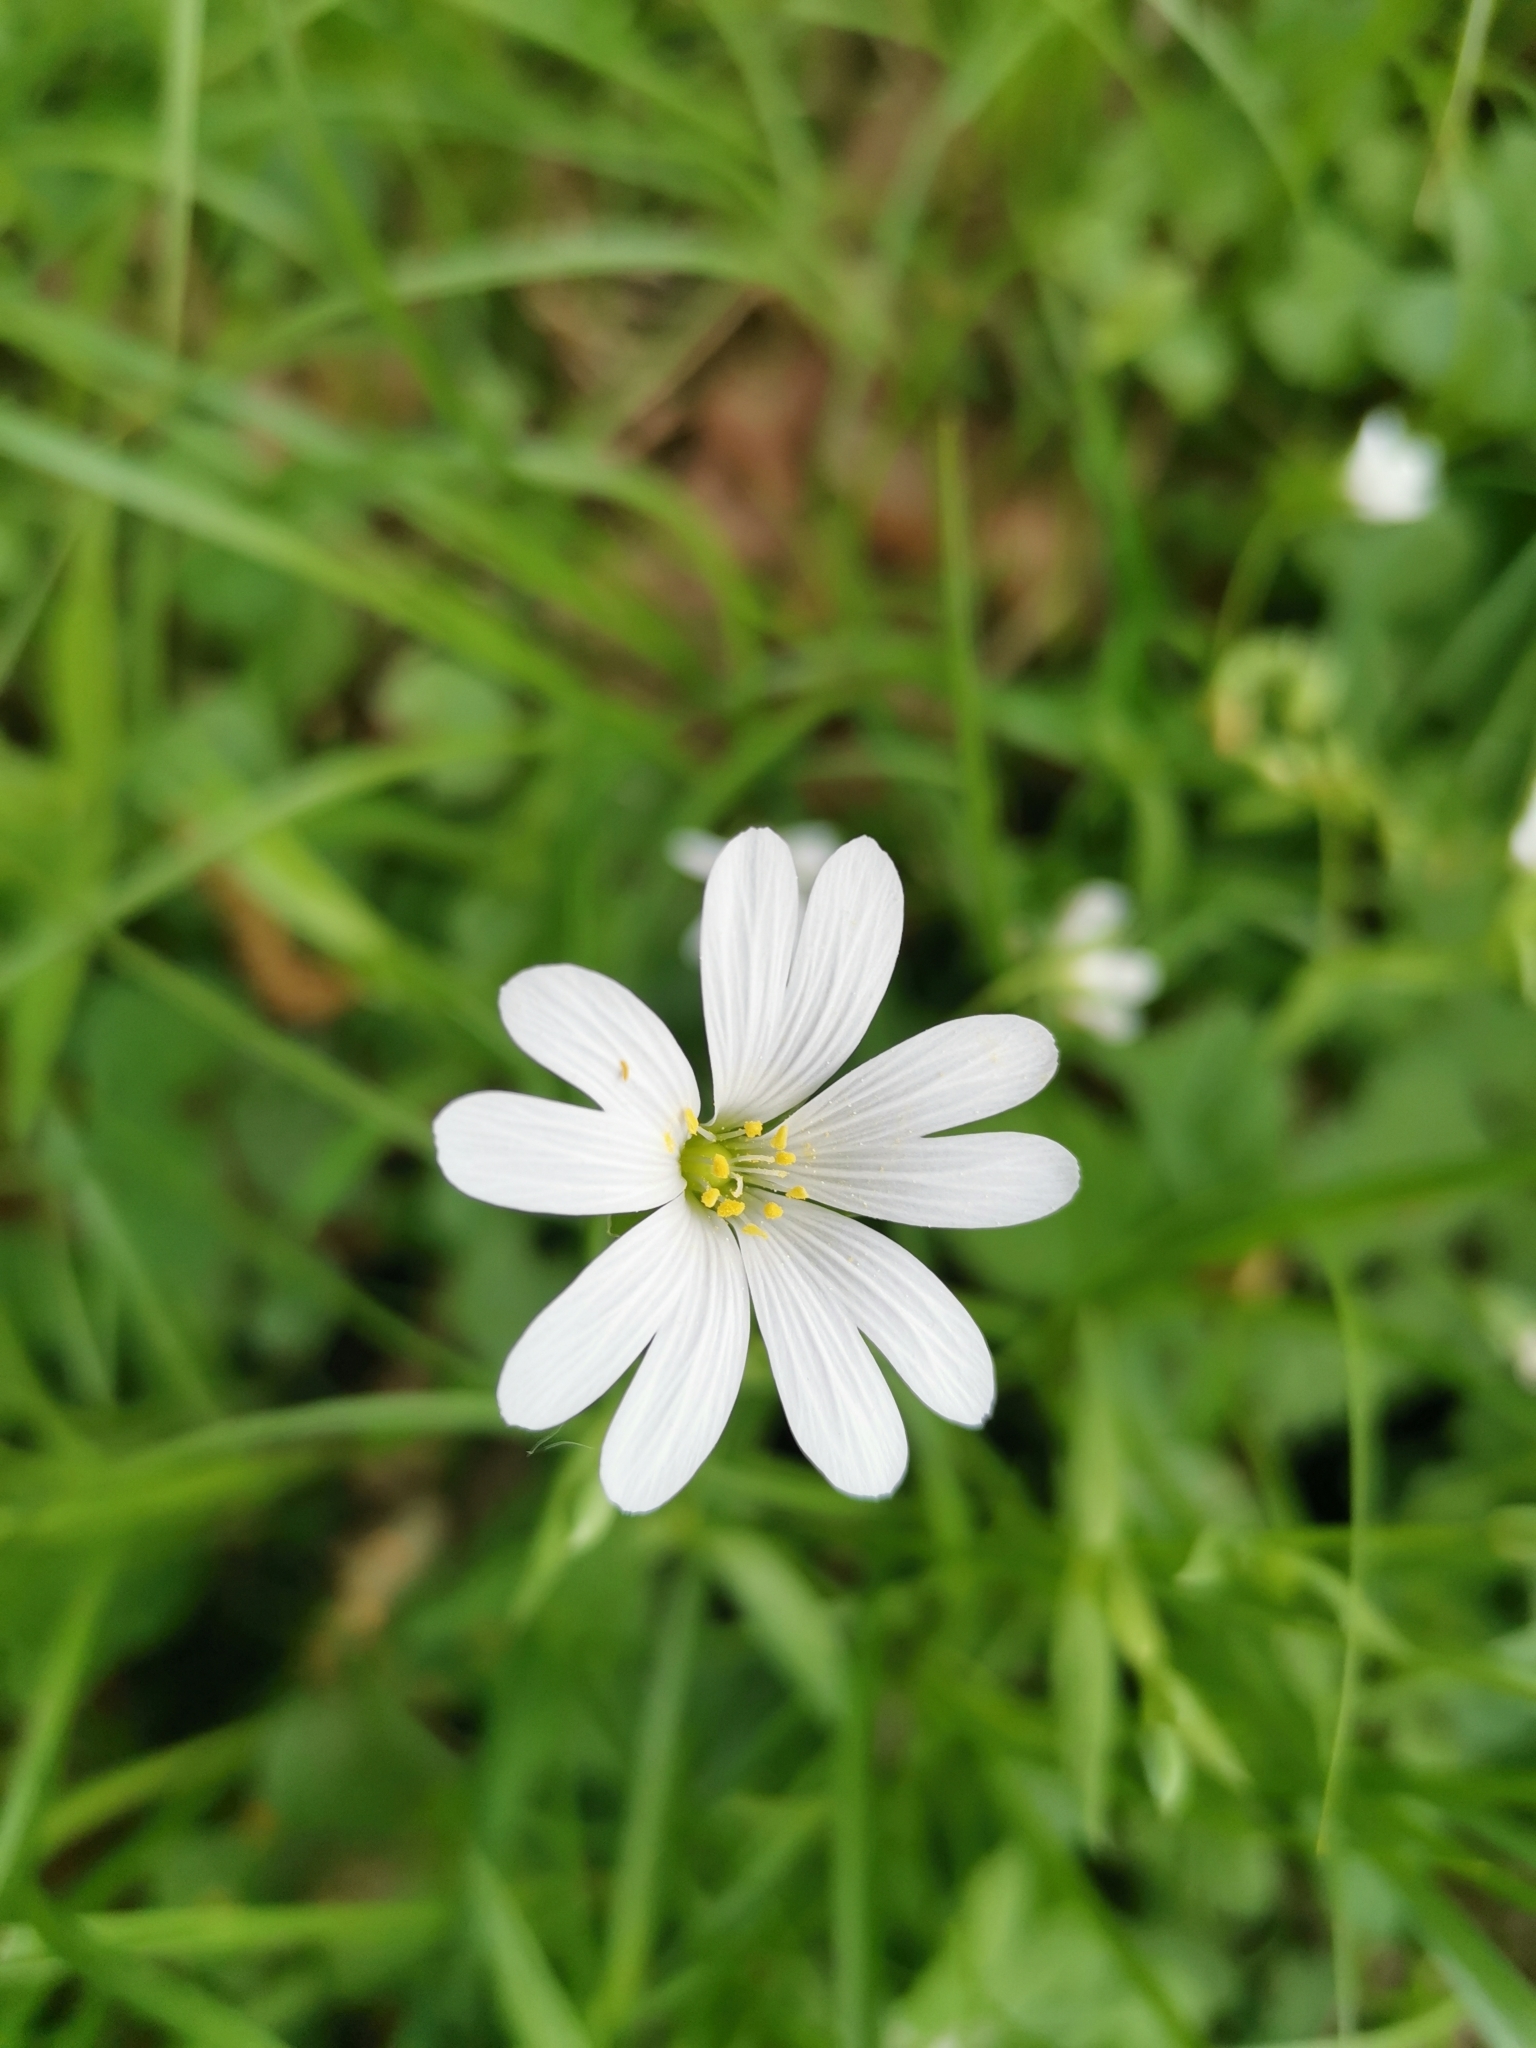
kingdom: Plantae
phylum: Tracheophyta
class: Magnoliopsida
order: Caryophyllales
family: Caryophyllaceae
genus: Rabelera
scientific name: Rabelera holostea
